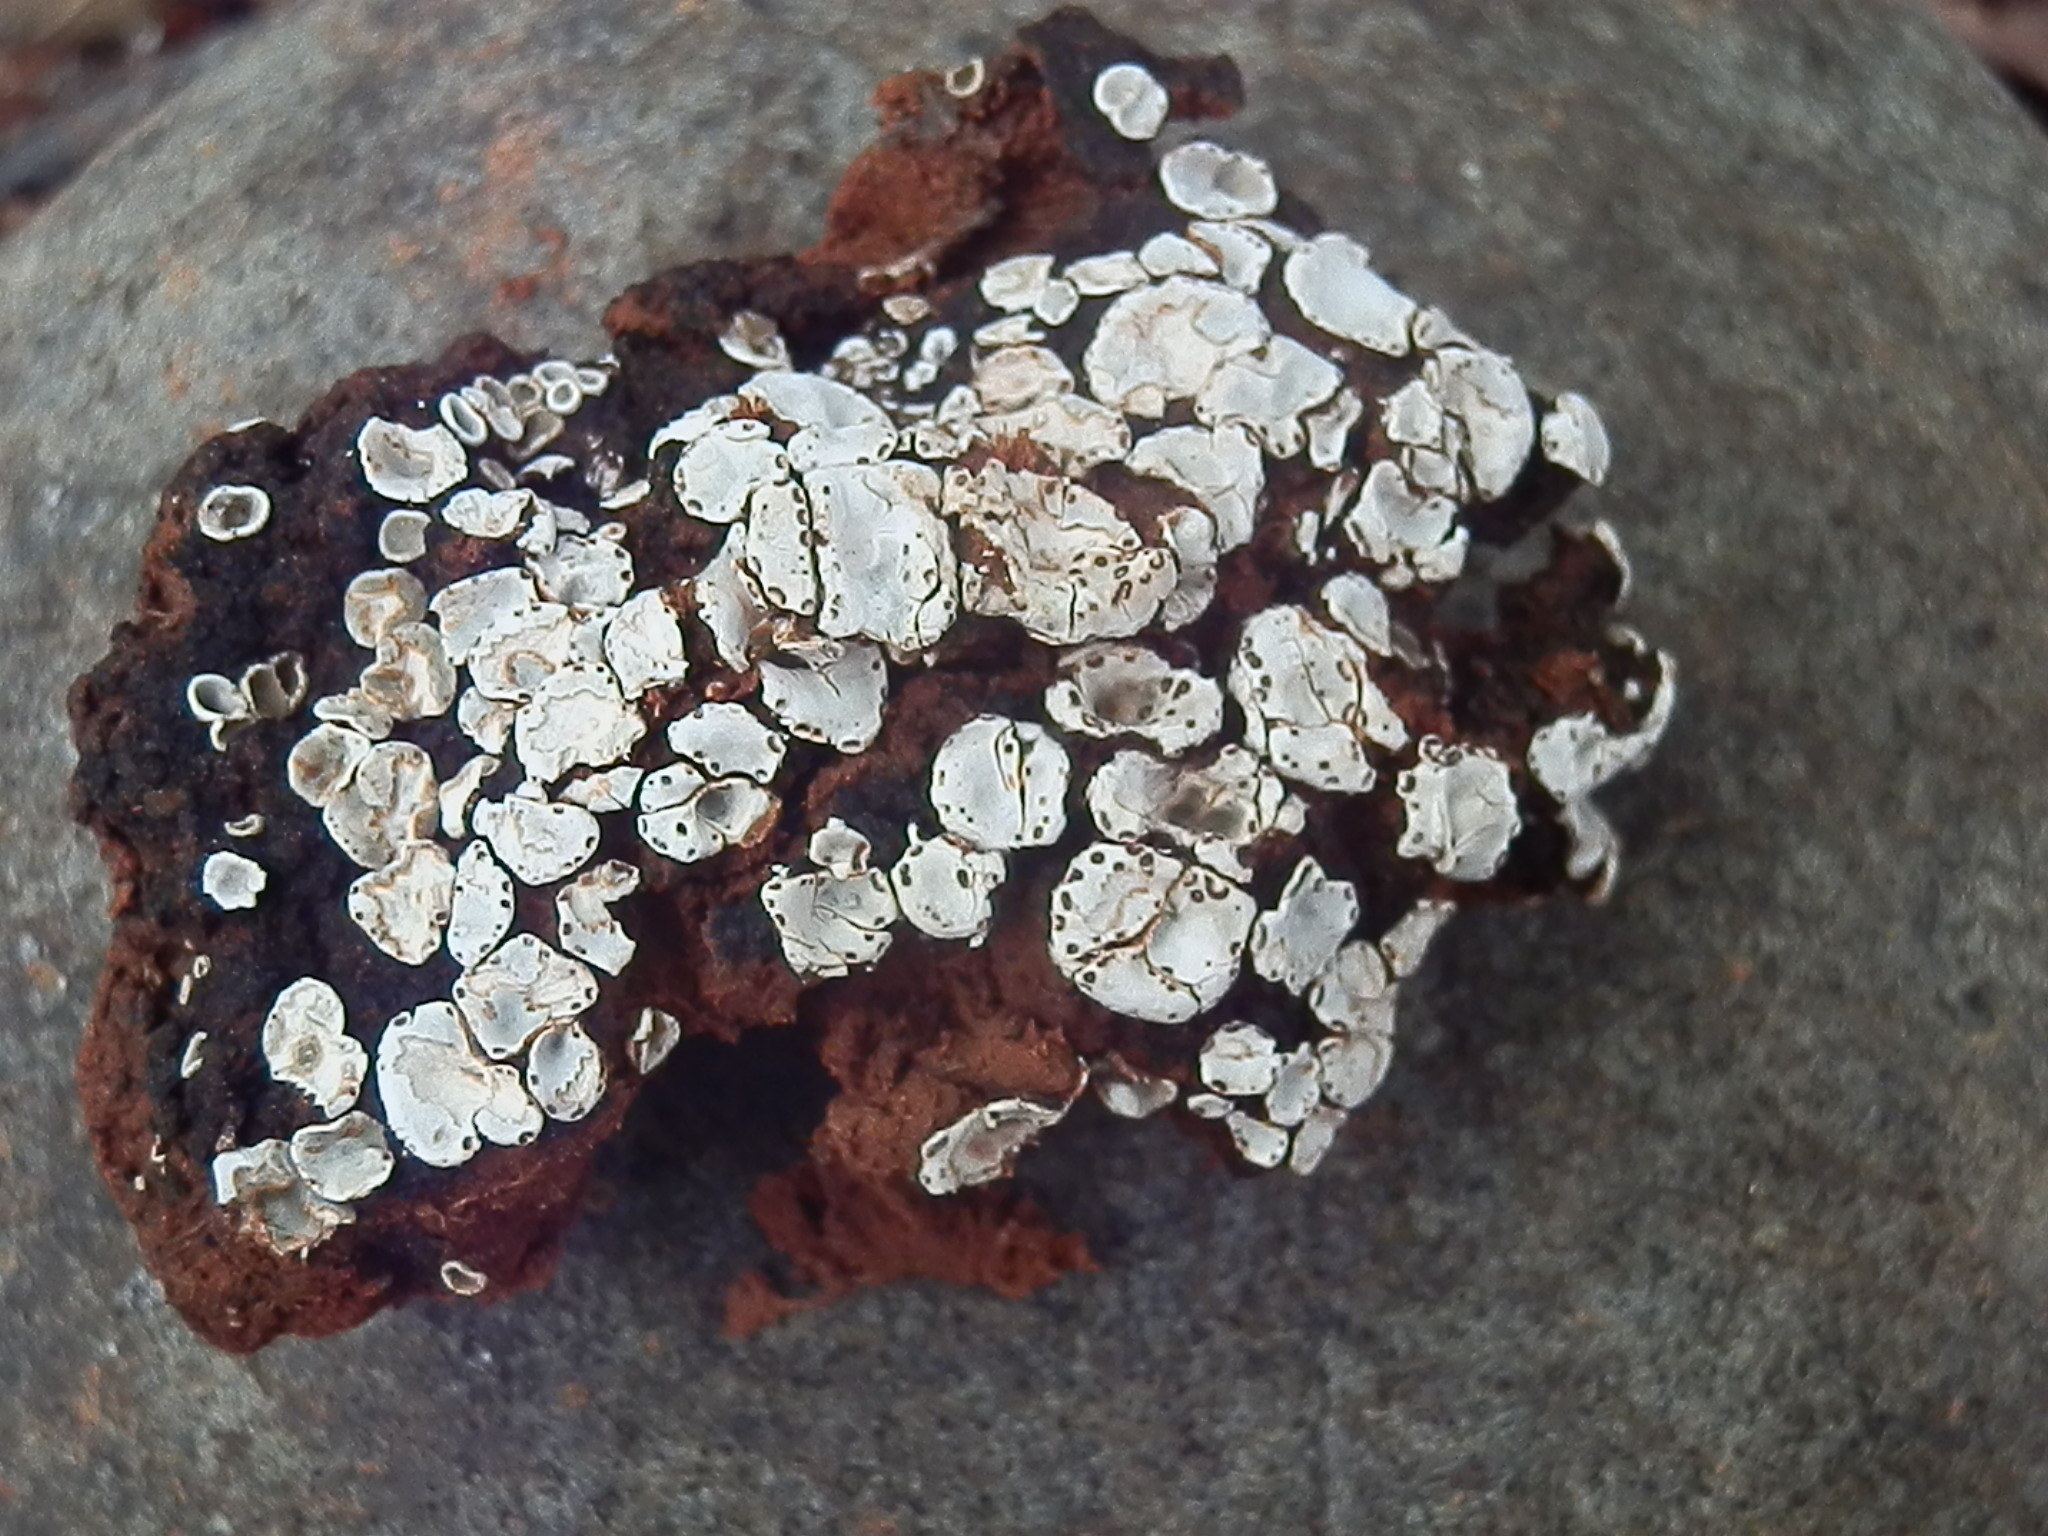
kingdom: Fungi
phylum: Ascomycota
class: Lecanoromycetes
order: Lecanorales
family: Psoraceae
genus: Psora
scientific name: Psora crenata
